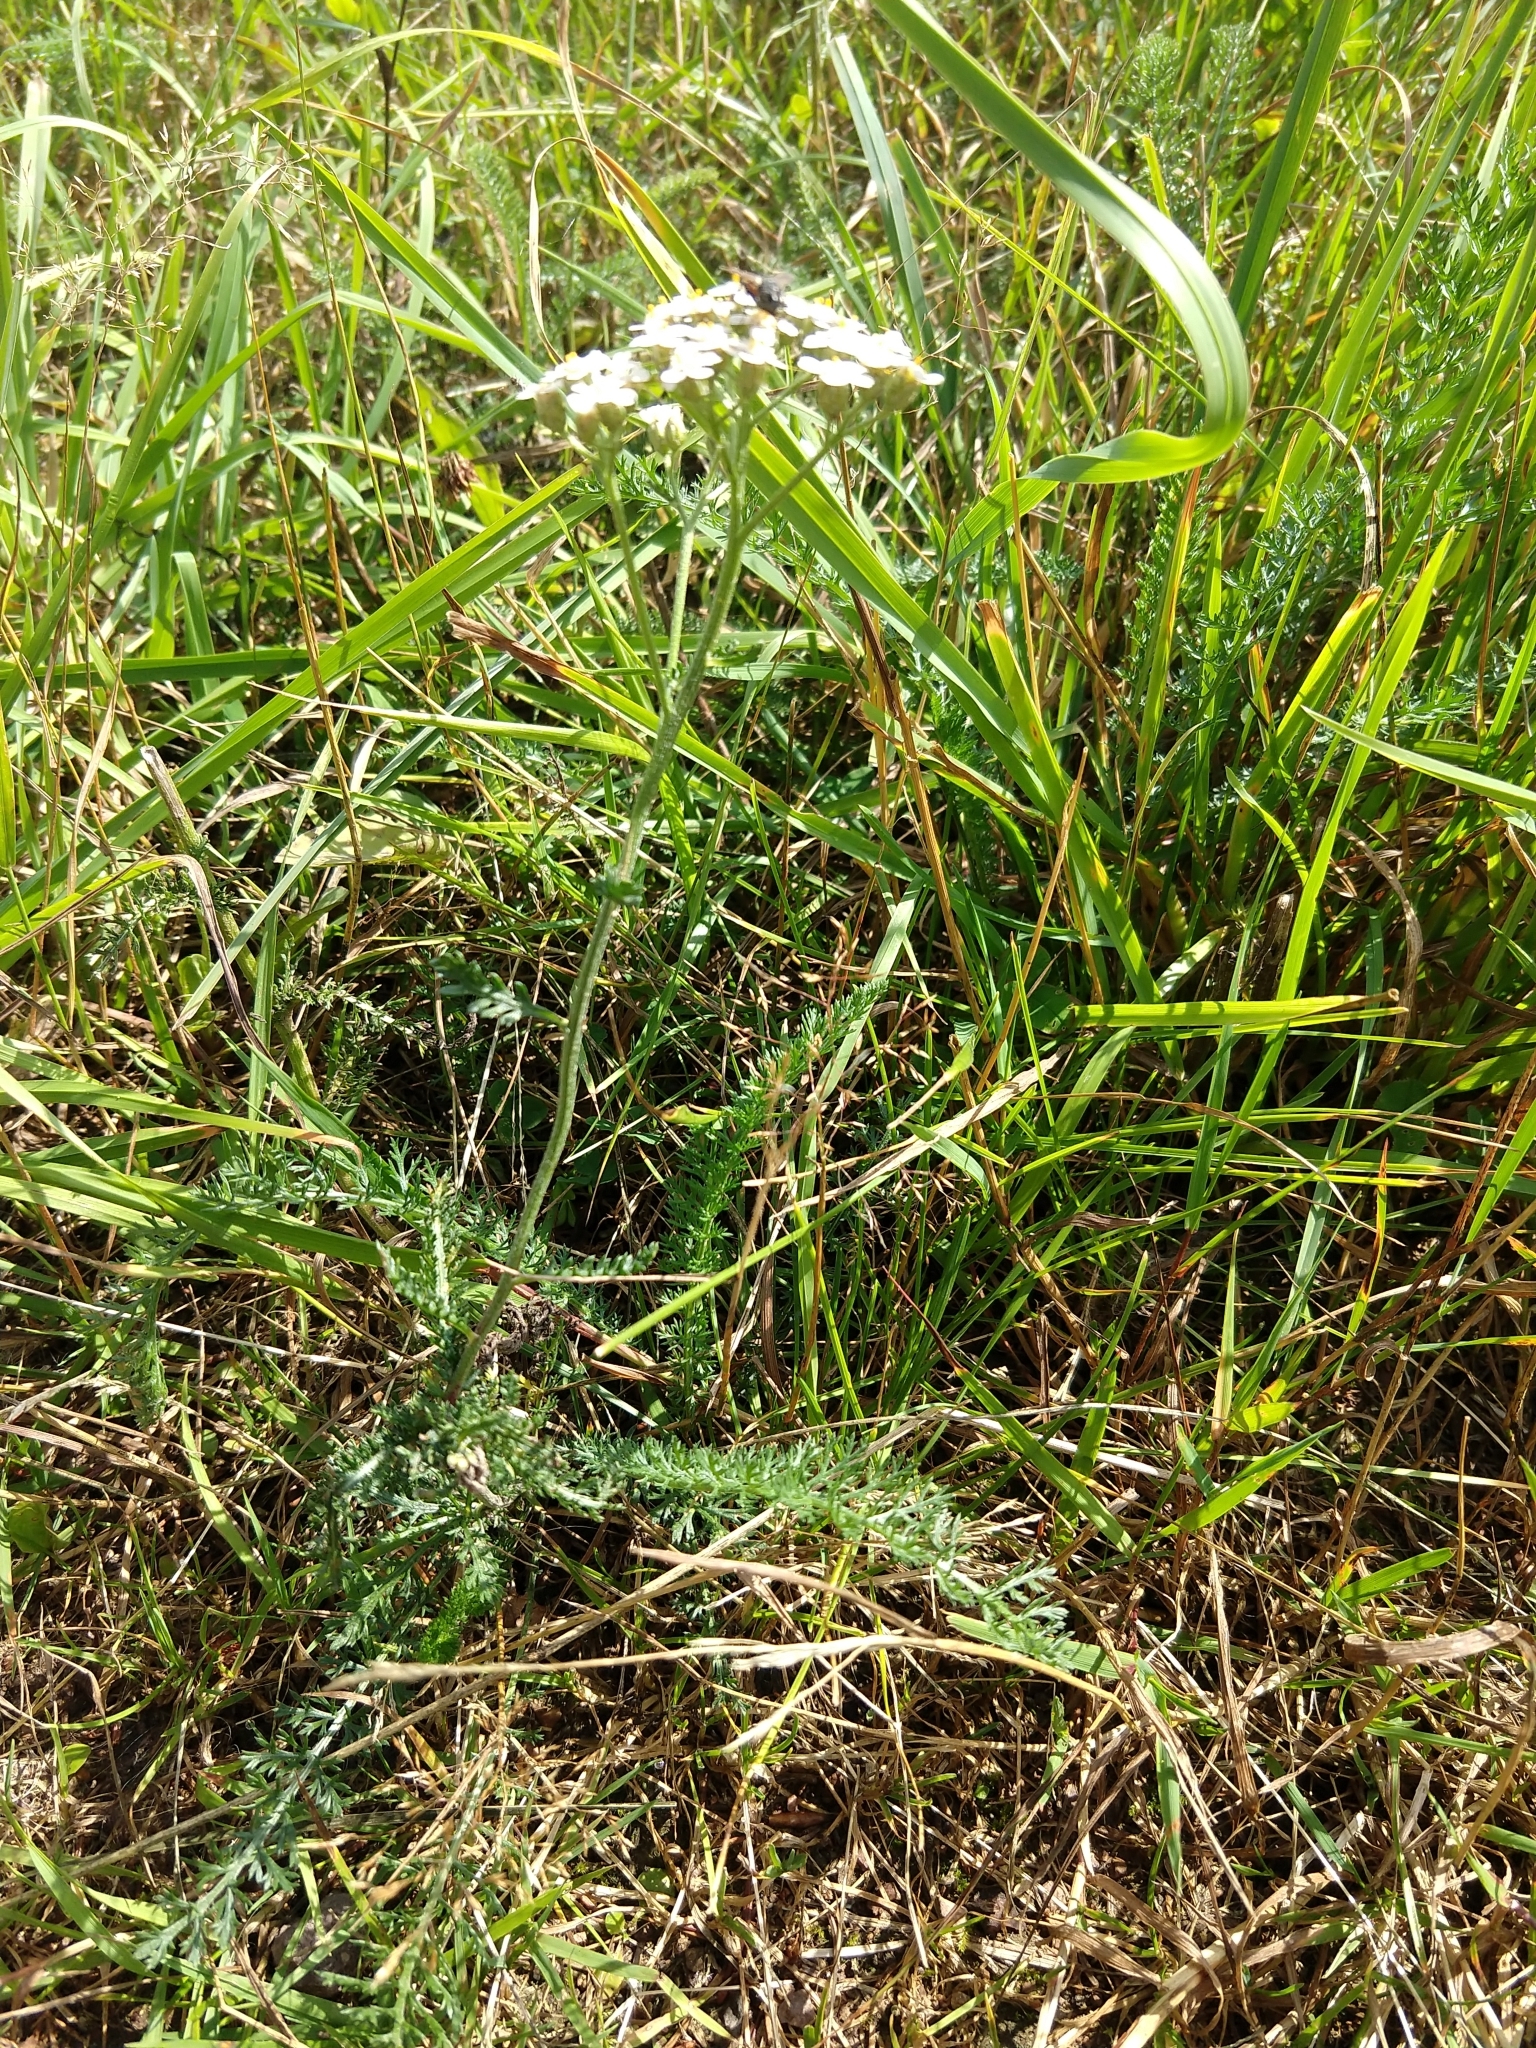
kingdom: Plantae
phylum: Tracheophyta
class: Magnoliopsida
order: Asterales
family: Asteraceae
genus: Achillea
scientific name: Achillea millefolium
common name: Yarrow
